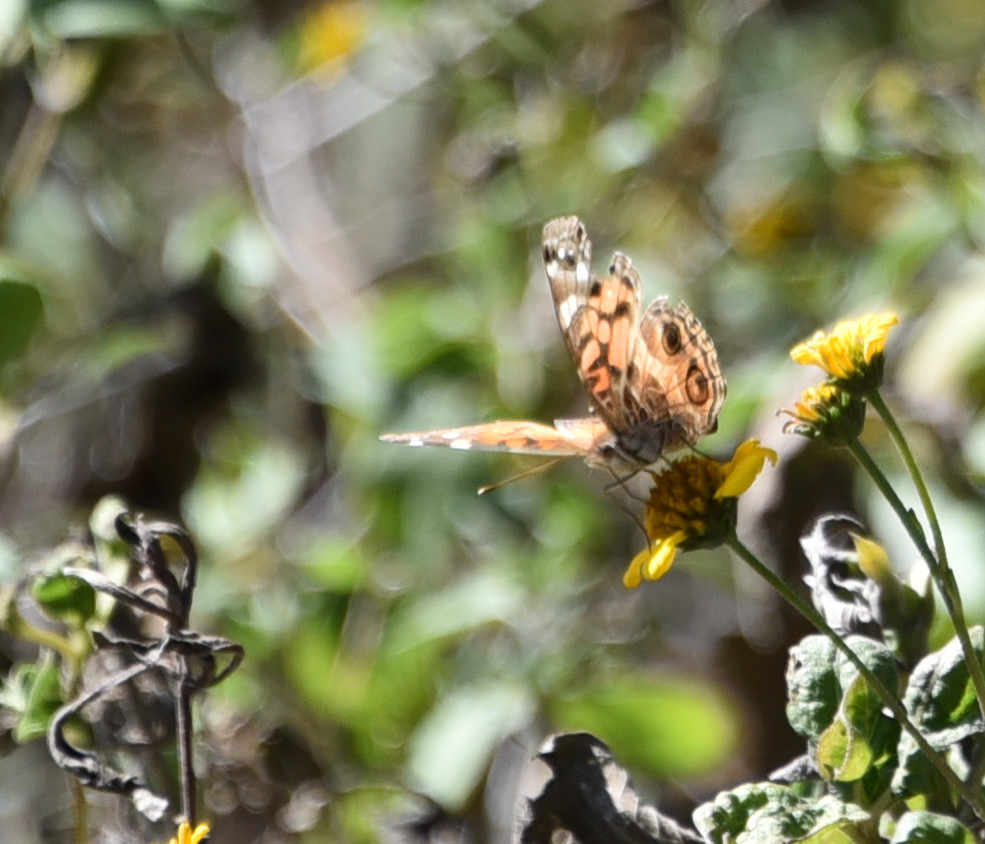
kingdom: Animalia
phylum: Arthropoda
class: Insecta
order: Lepidoptera
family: Nymphalidae
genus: Vanessa
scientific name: Vanessa virginiensis
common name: American lady
